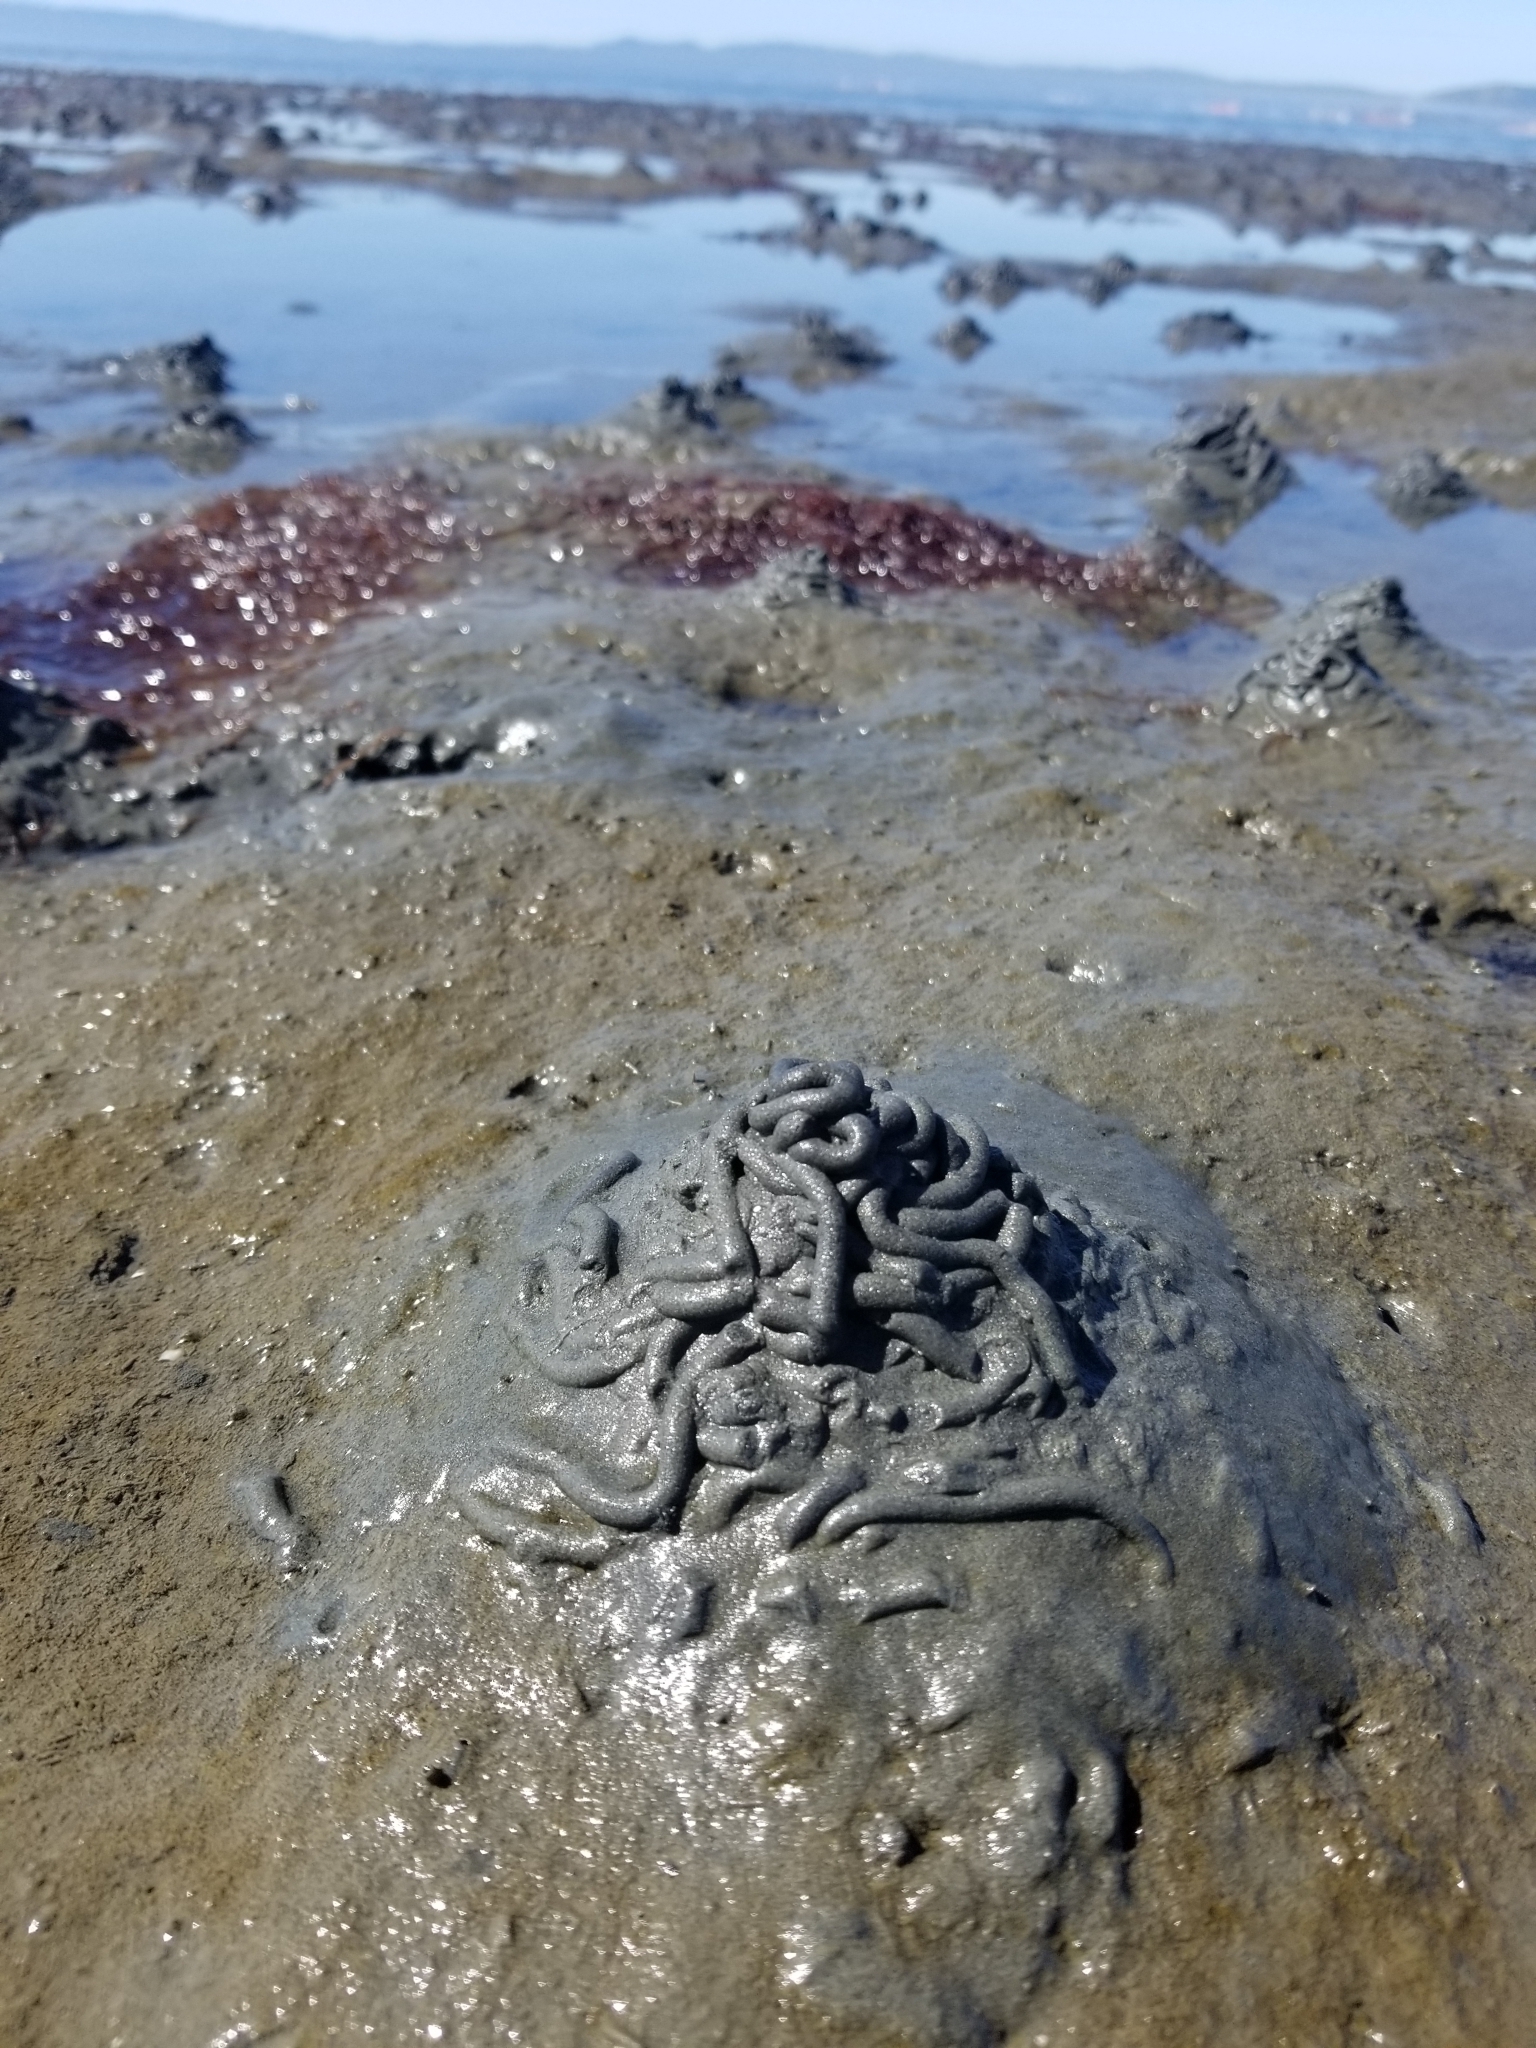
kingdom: Animalia
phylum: Annelida
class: Polychaeta
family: Arenicolidae
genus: Abarenicola
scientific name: Abarenicola pacifica
